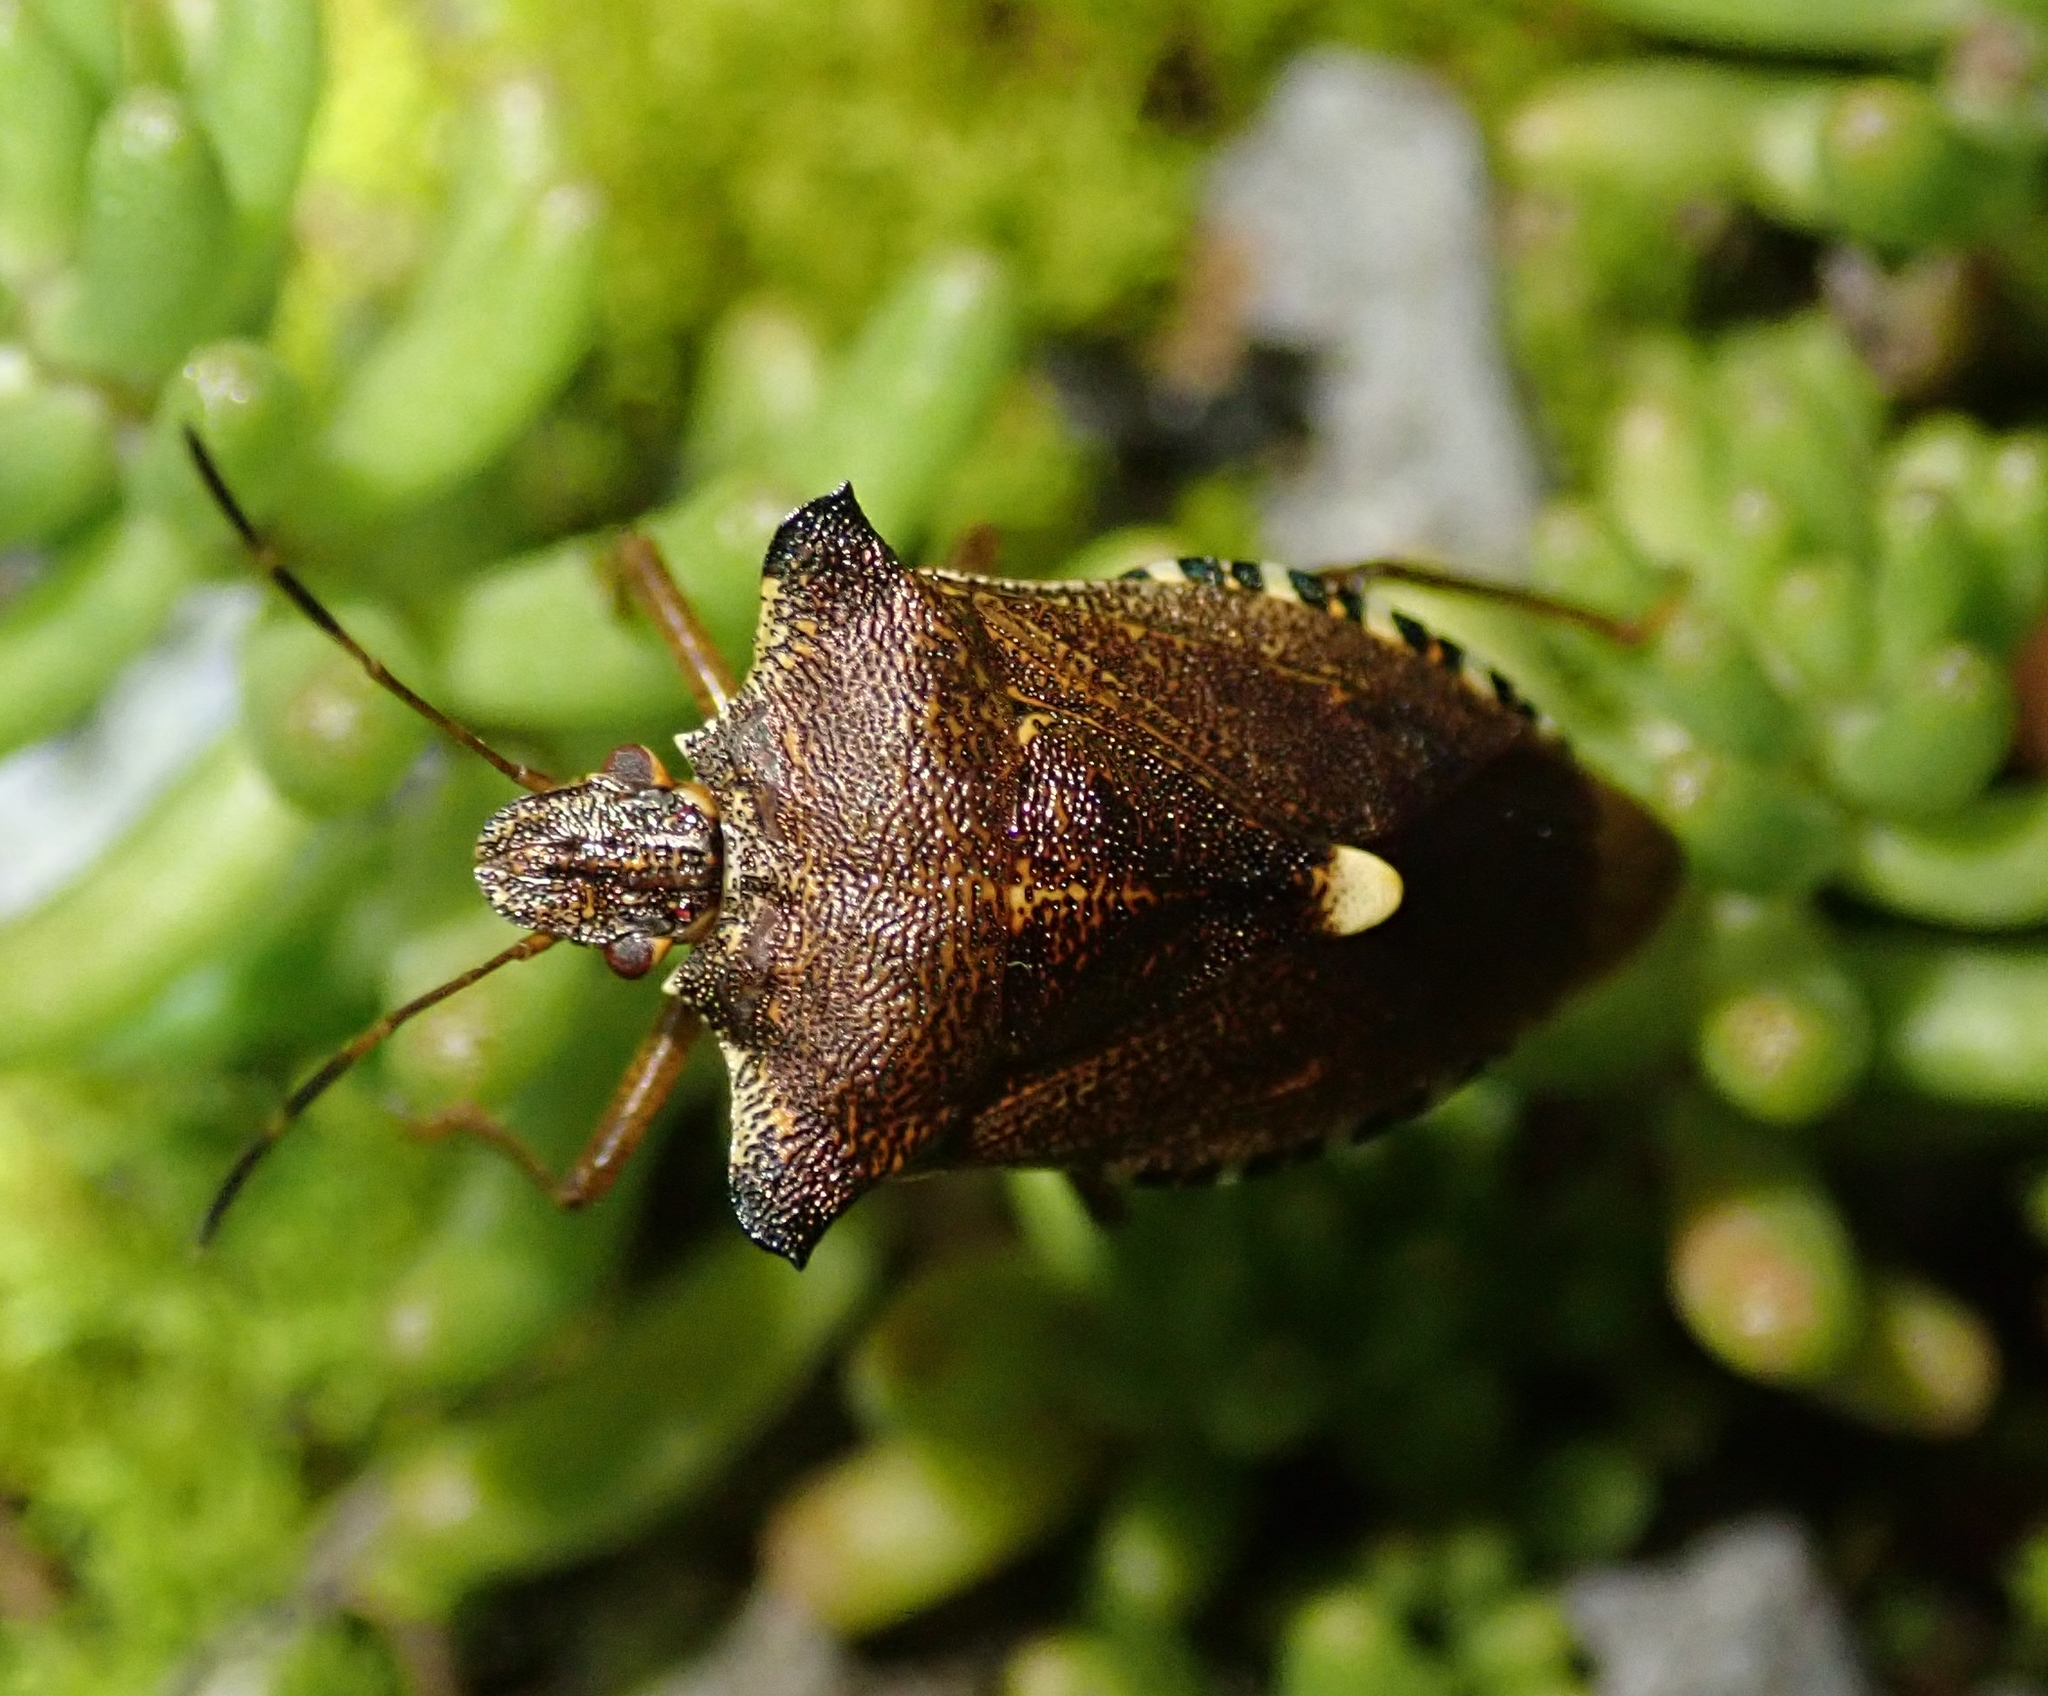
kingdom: Animalia
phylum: Arthropoda
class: Insecta
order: Hemiptera
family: Pentatomidae
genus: Pentatoma
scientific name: Pentatoma rufipes
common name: Forest bug
